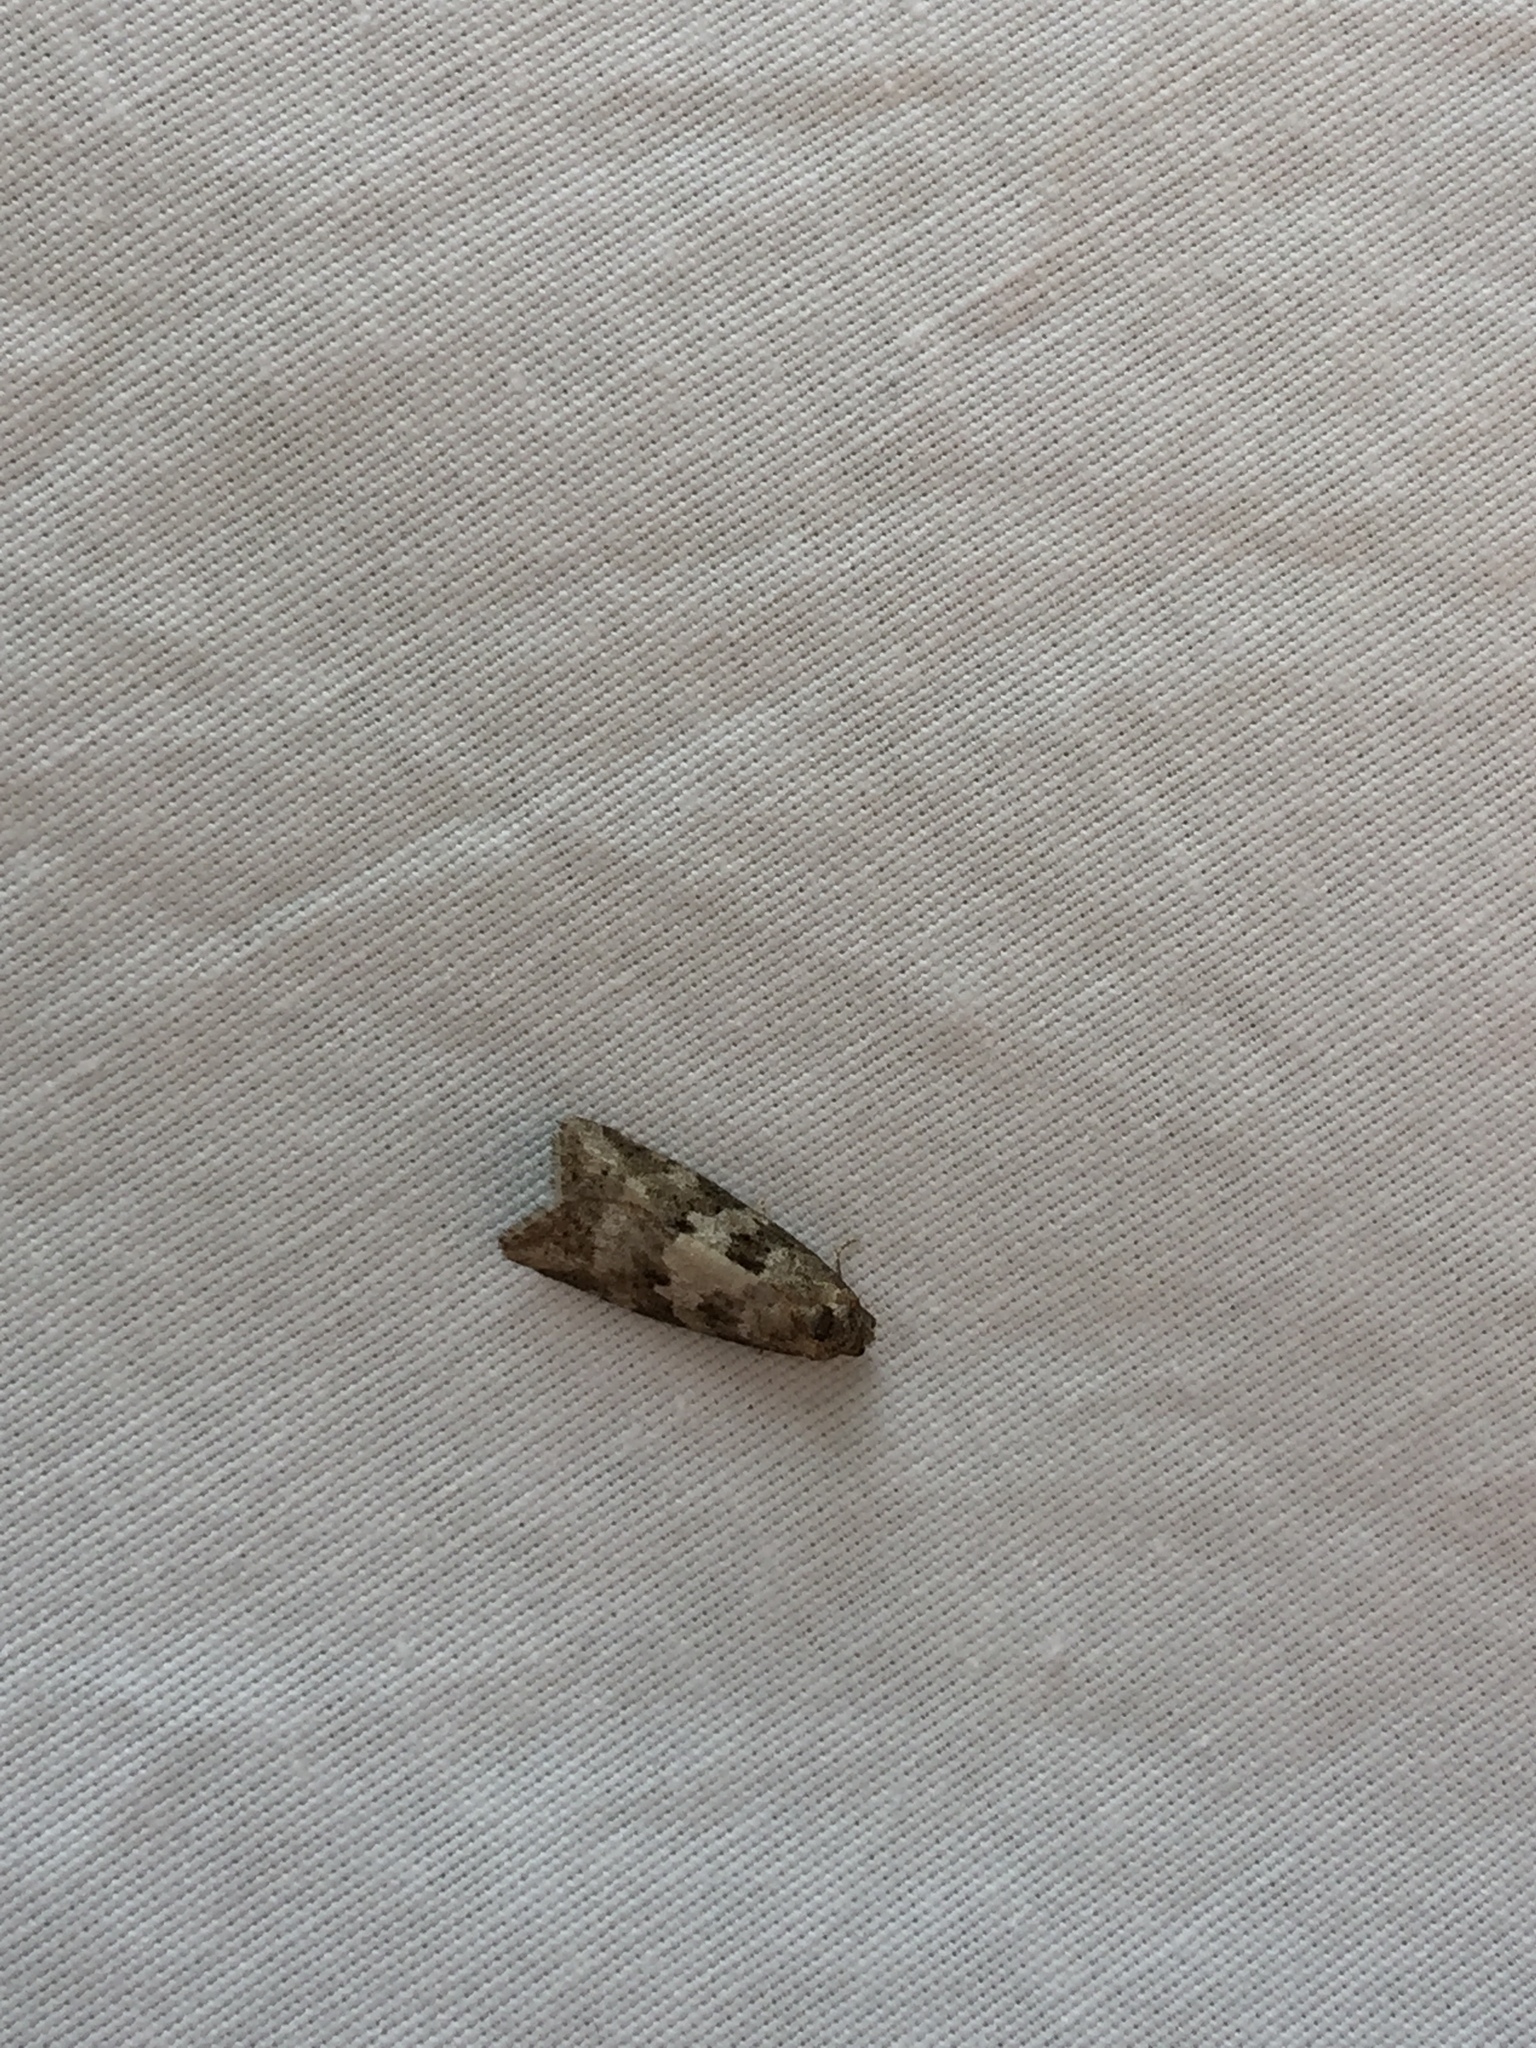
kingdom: Animalia
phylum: Arthropoda
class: Insecta
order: Lepidoptera
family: Tortricidae
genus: Cnephasia
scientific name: Cnephasia stephensiana
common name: Grey tortrix
